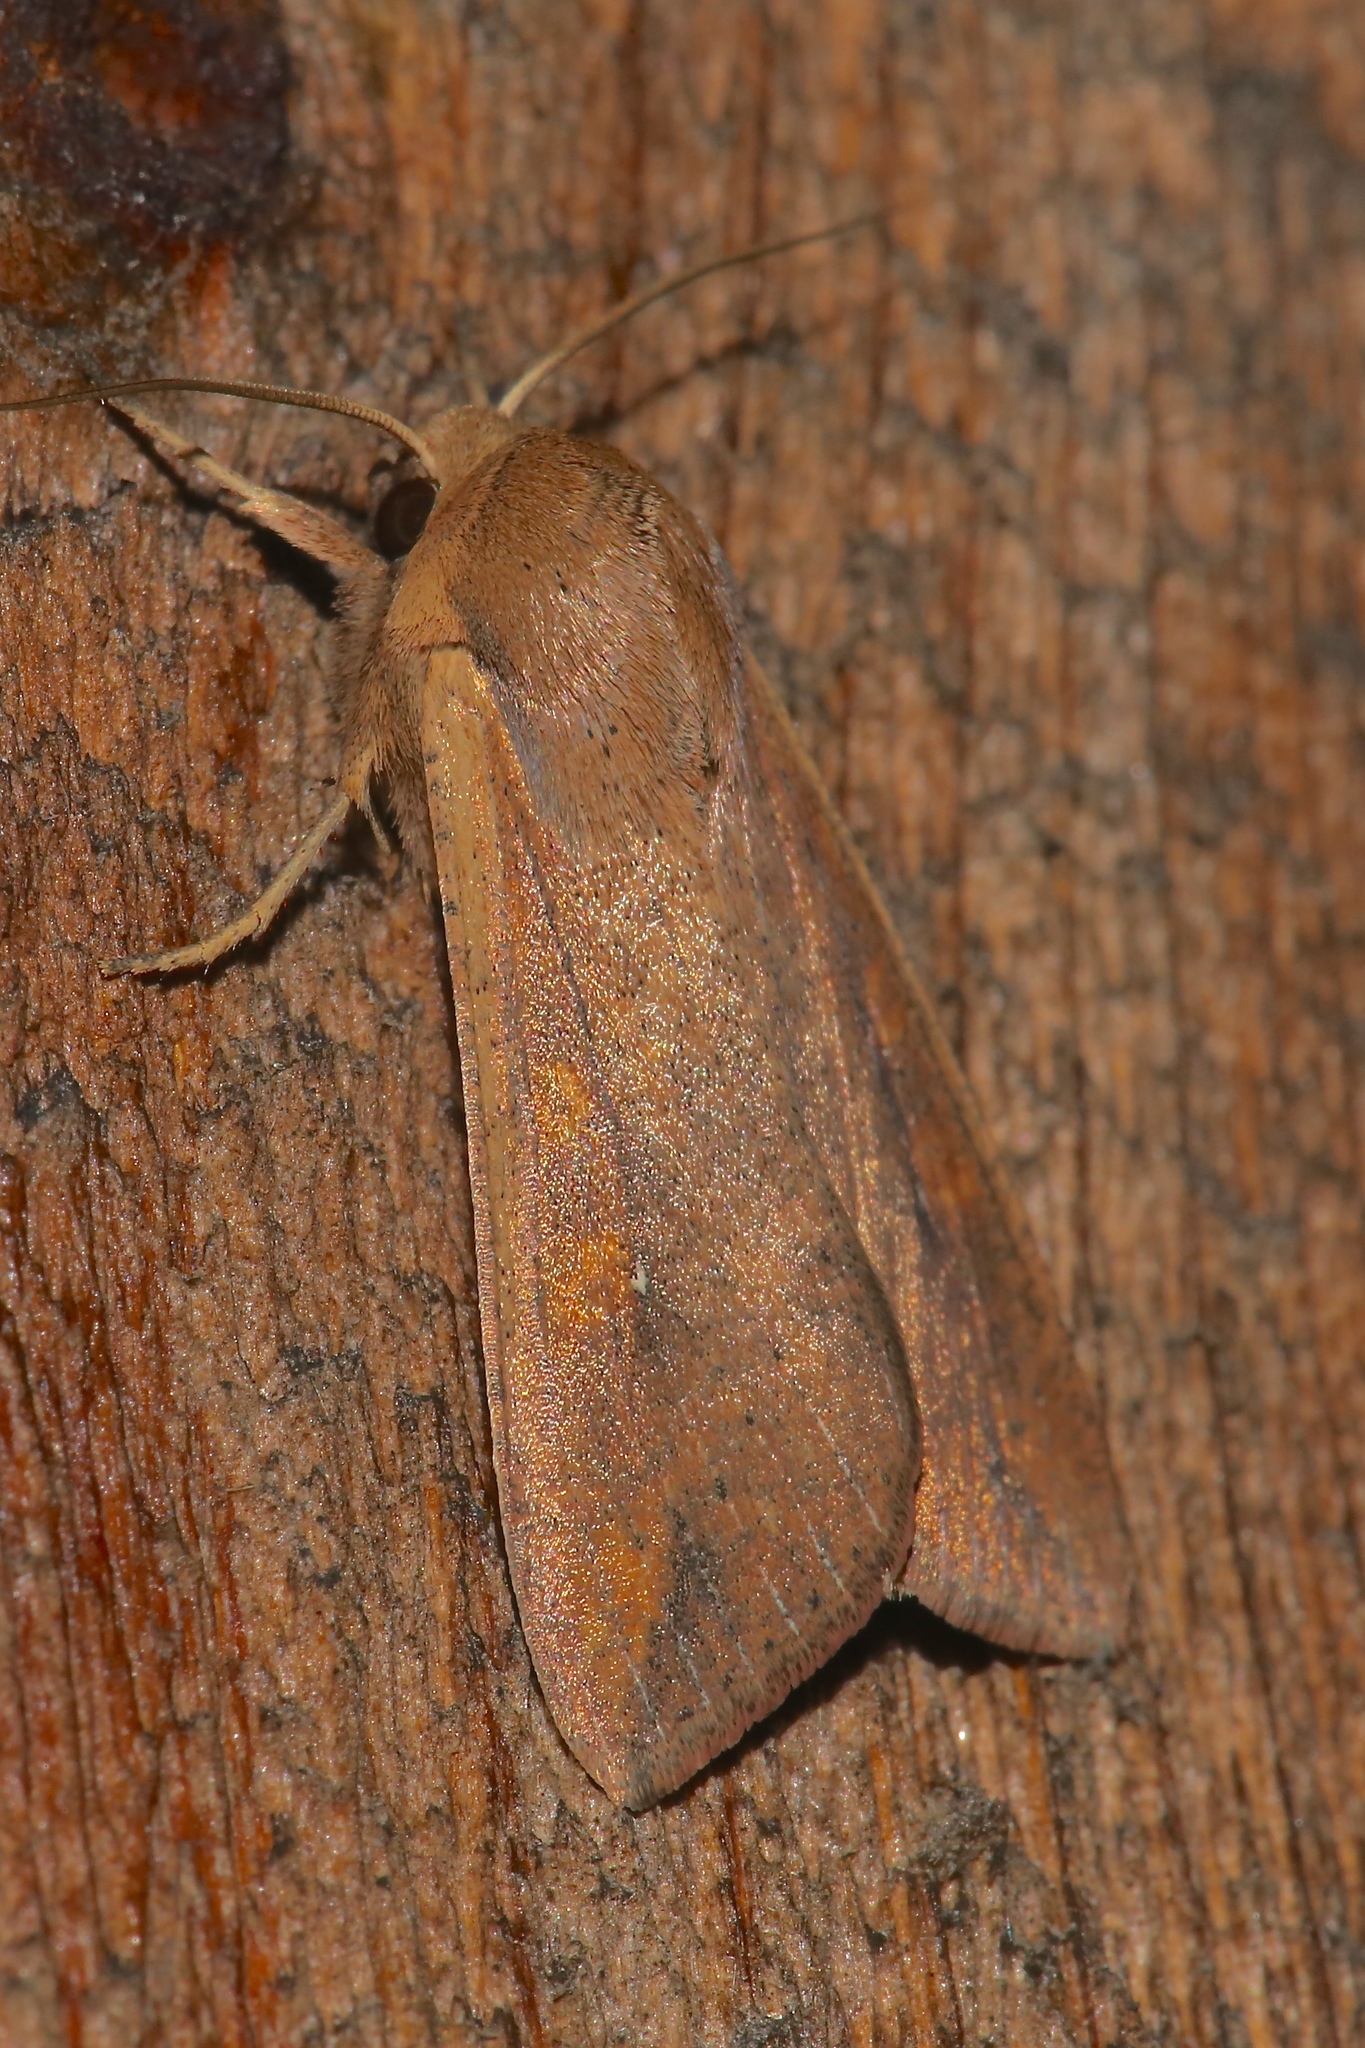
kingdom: Animalia
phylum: Arthropoda
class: Insecta
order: Lepidoptera
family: Noctuidae
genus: Mythimna
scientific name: Mythimna unipuncta
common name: White-speck
